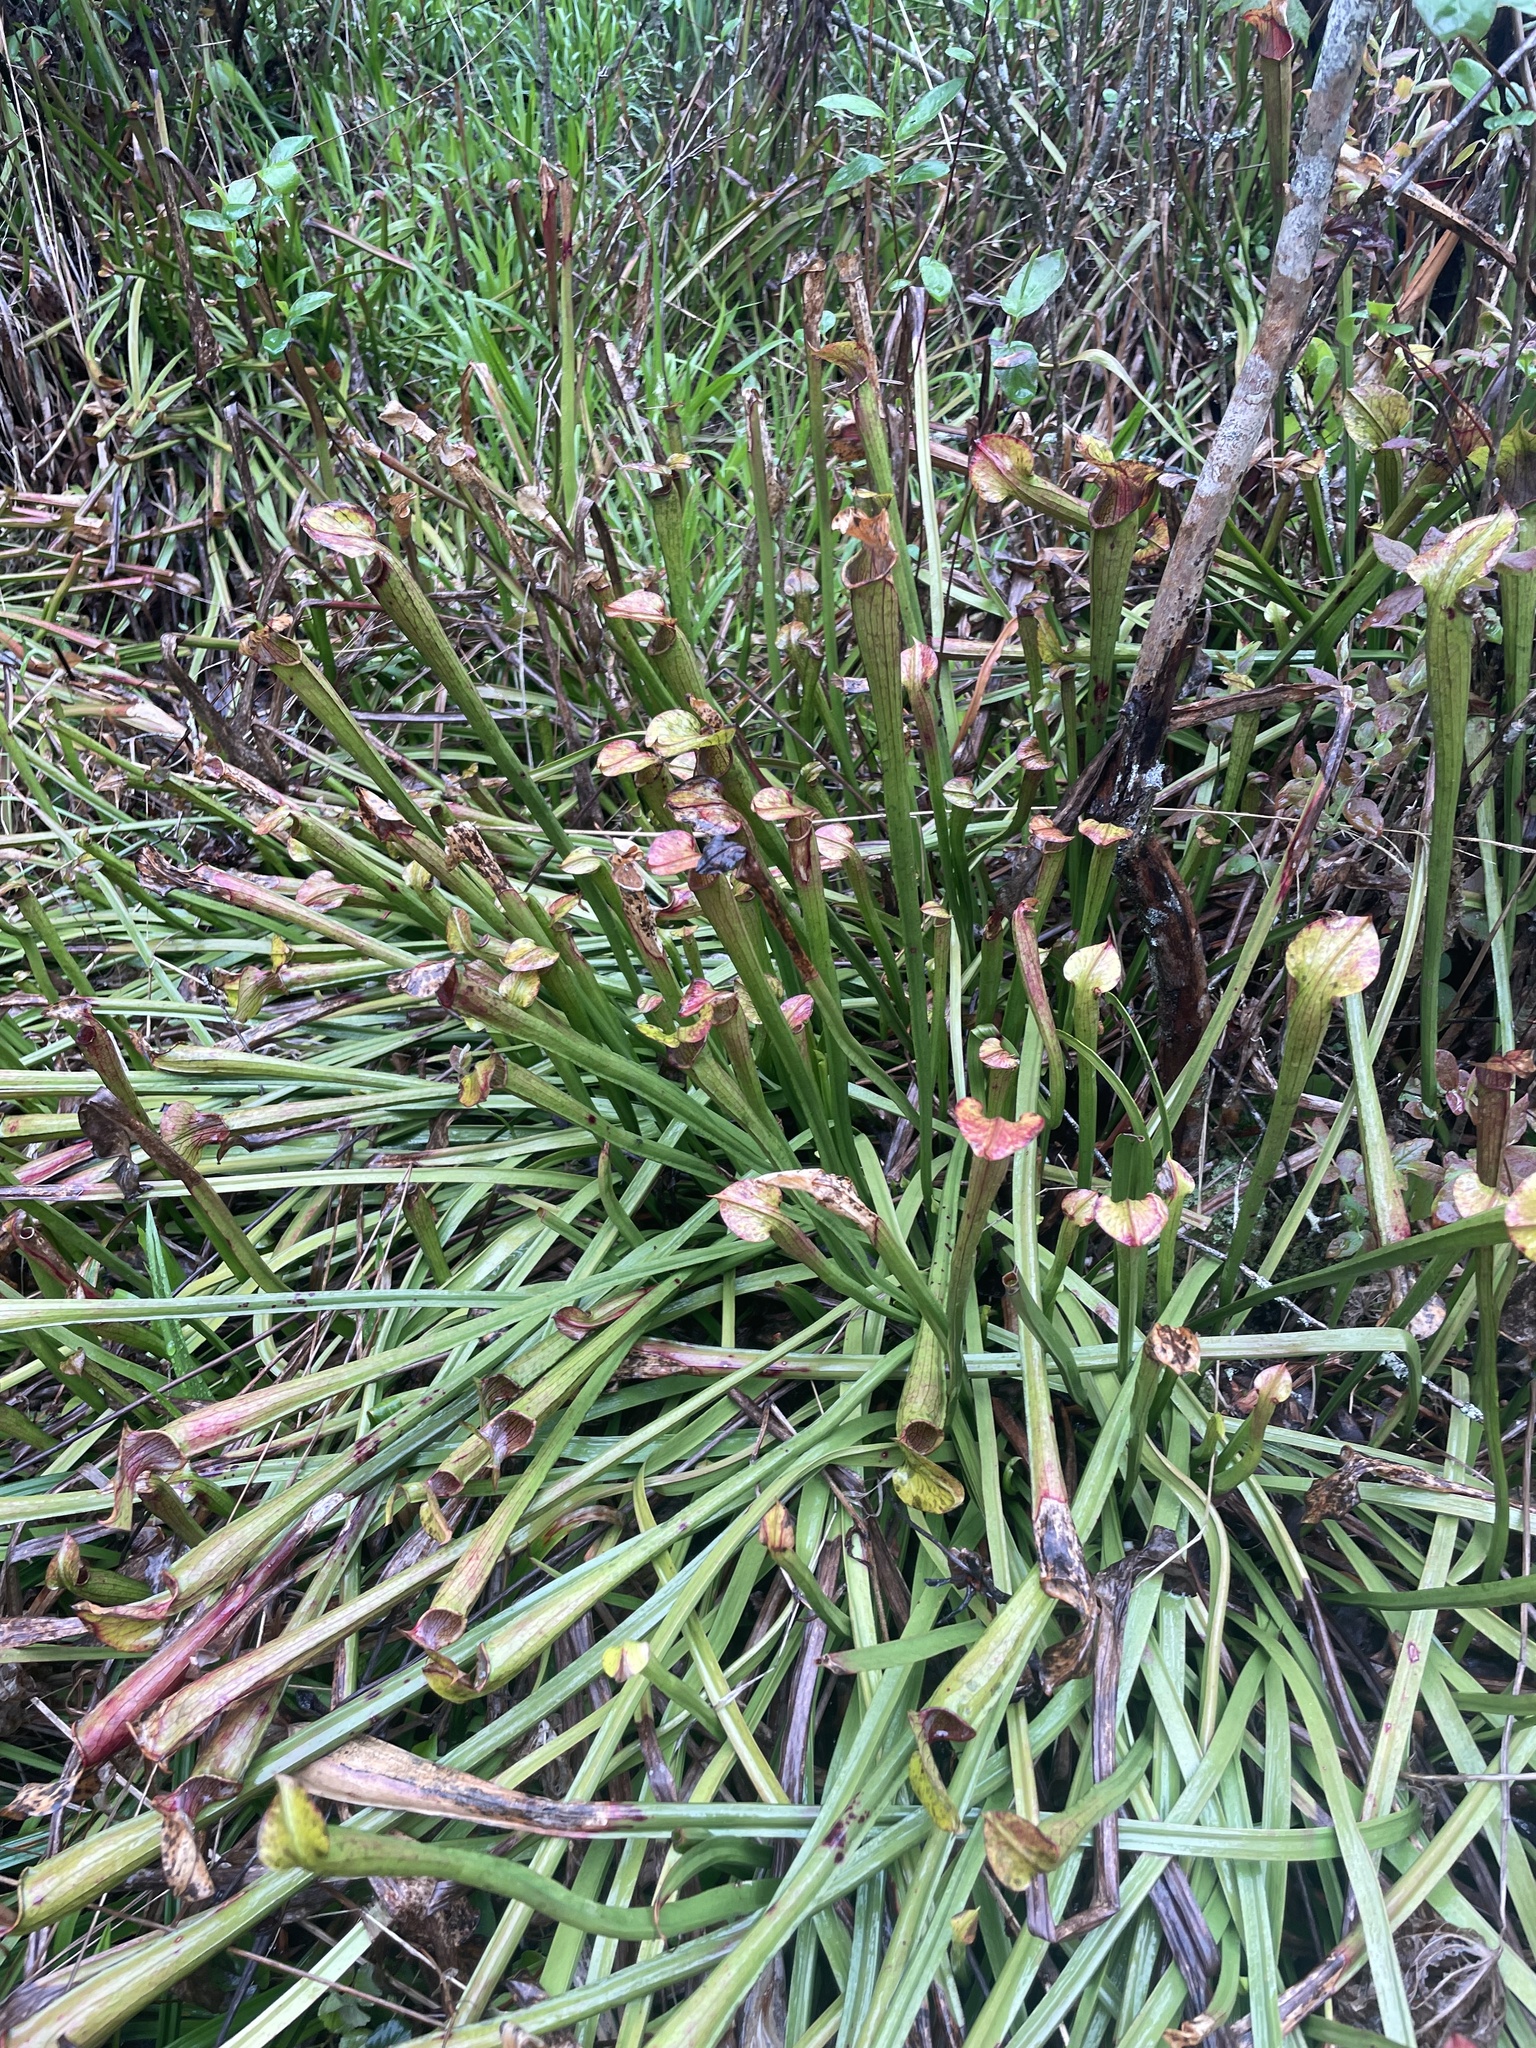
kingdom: Plantae
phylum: Tracheophyta
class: Magnoliopsida
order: Ericales
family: Sarraceniaceae
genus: Sarracenia
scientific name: Sarracenia jonesii
